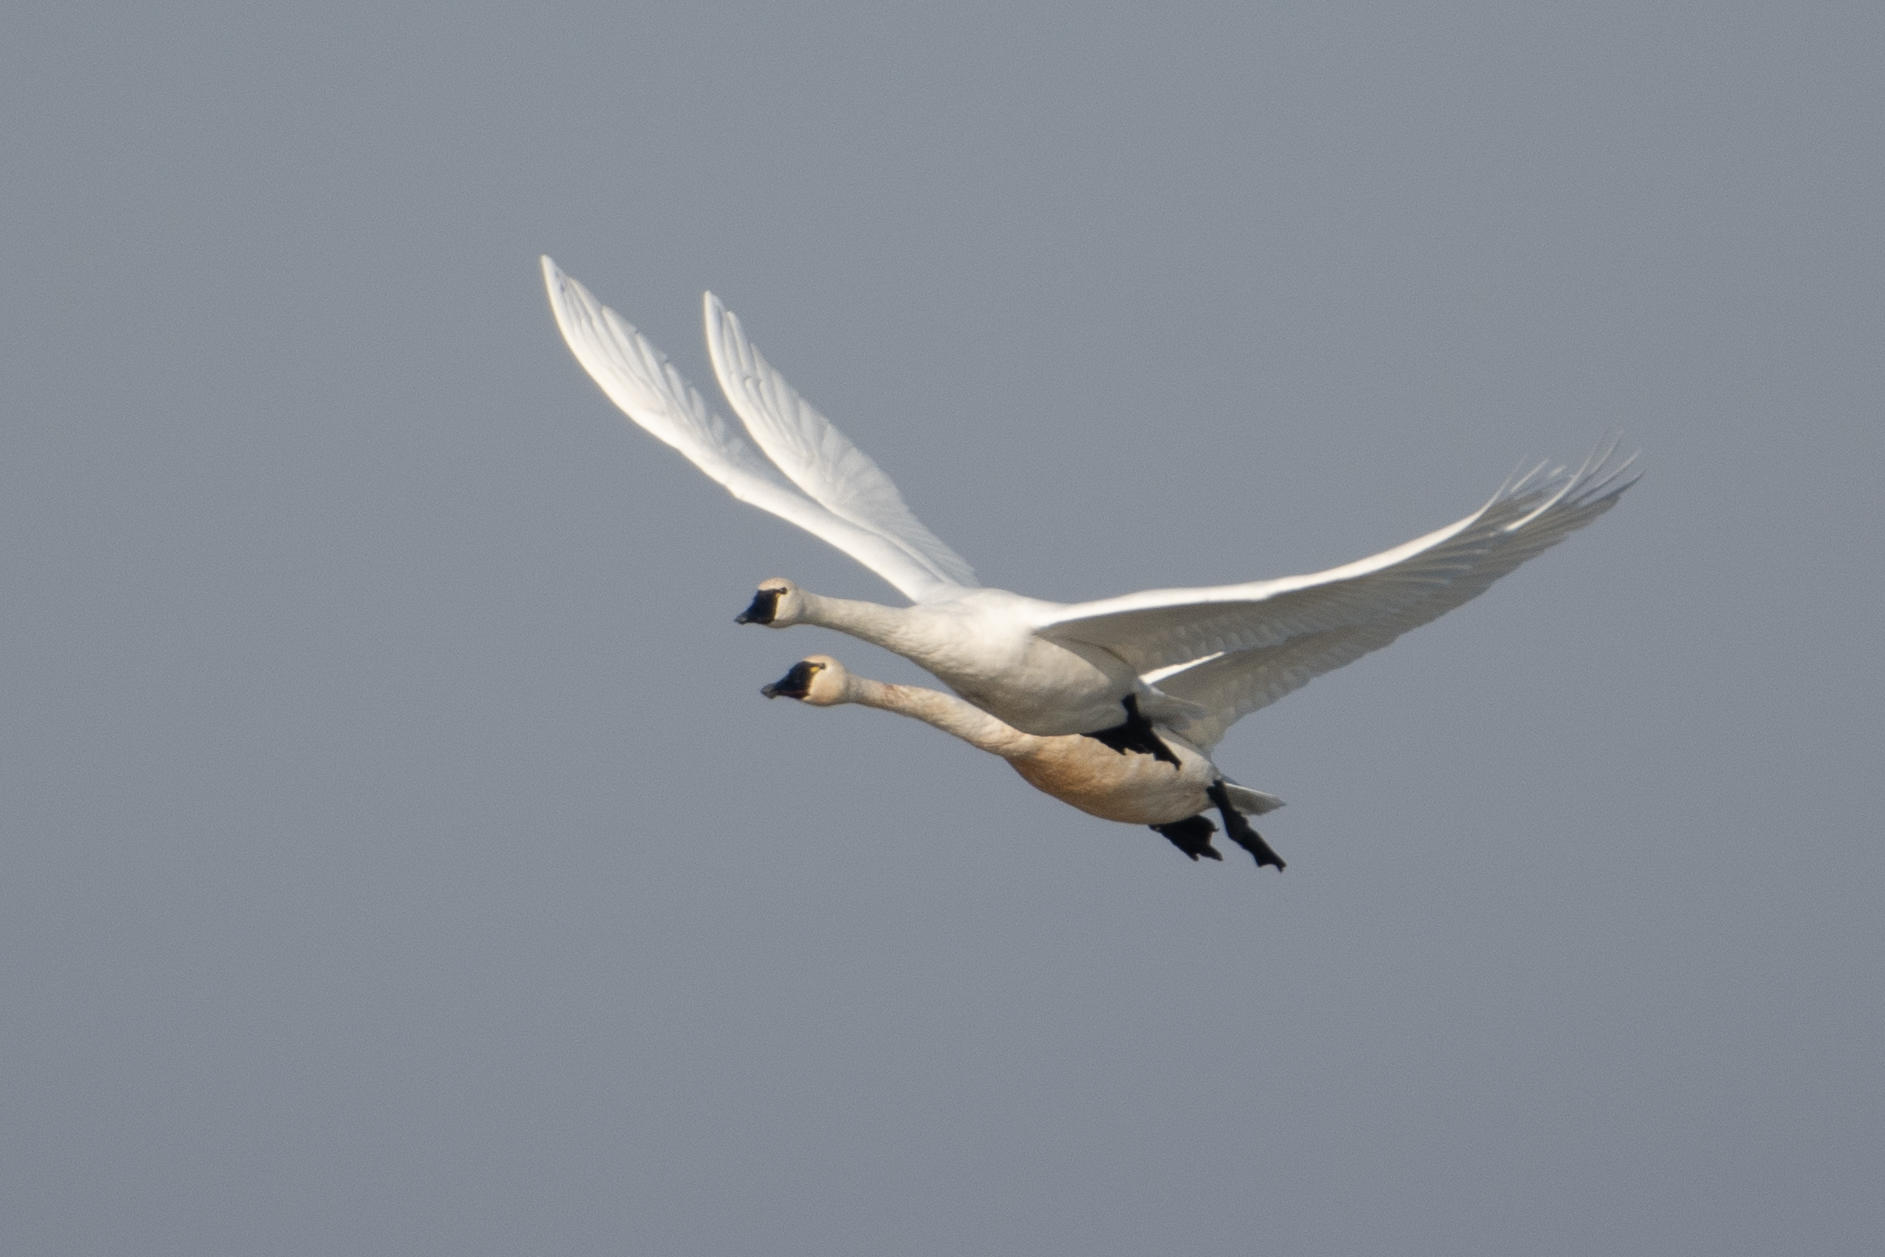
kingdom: Animalia
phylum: Chordata
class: Aves
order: Anseriformes
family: Anatidae
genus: Cygnus
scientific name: Cygnus columbianus
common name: Tundra swan
